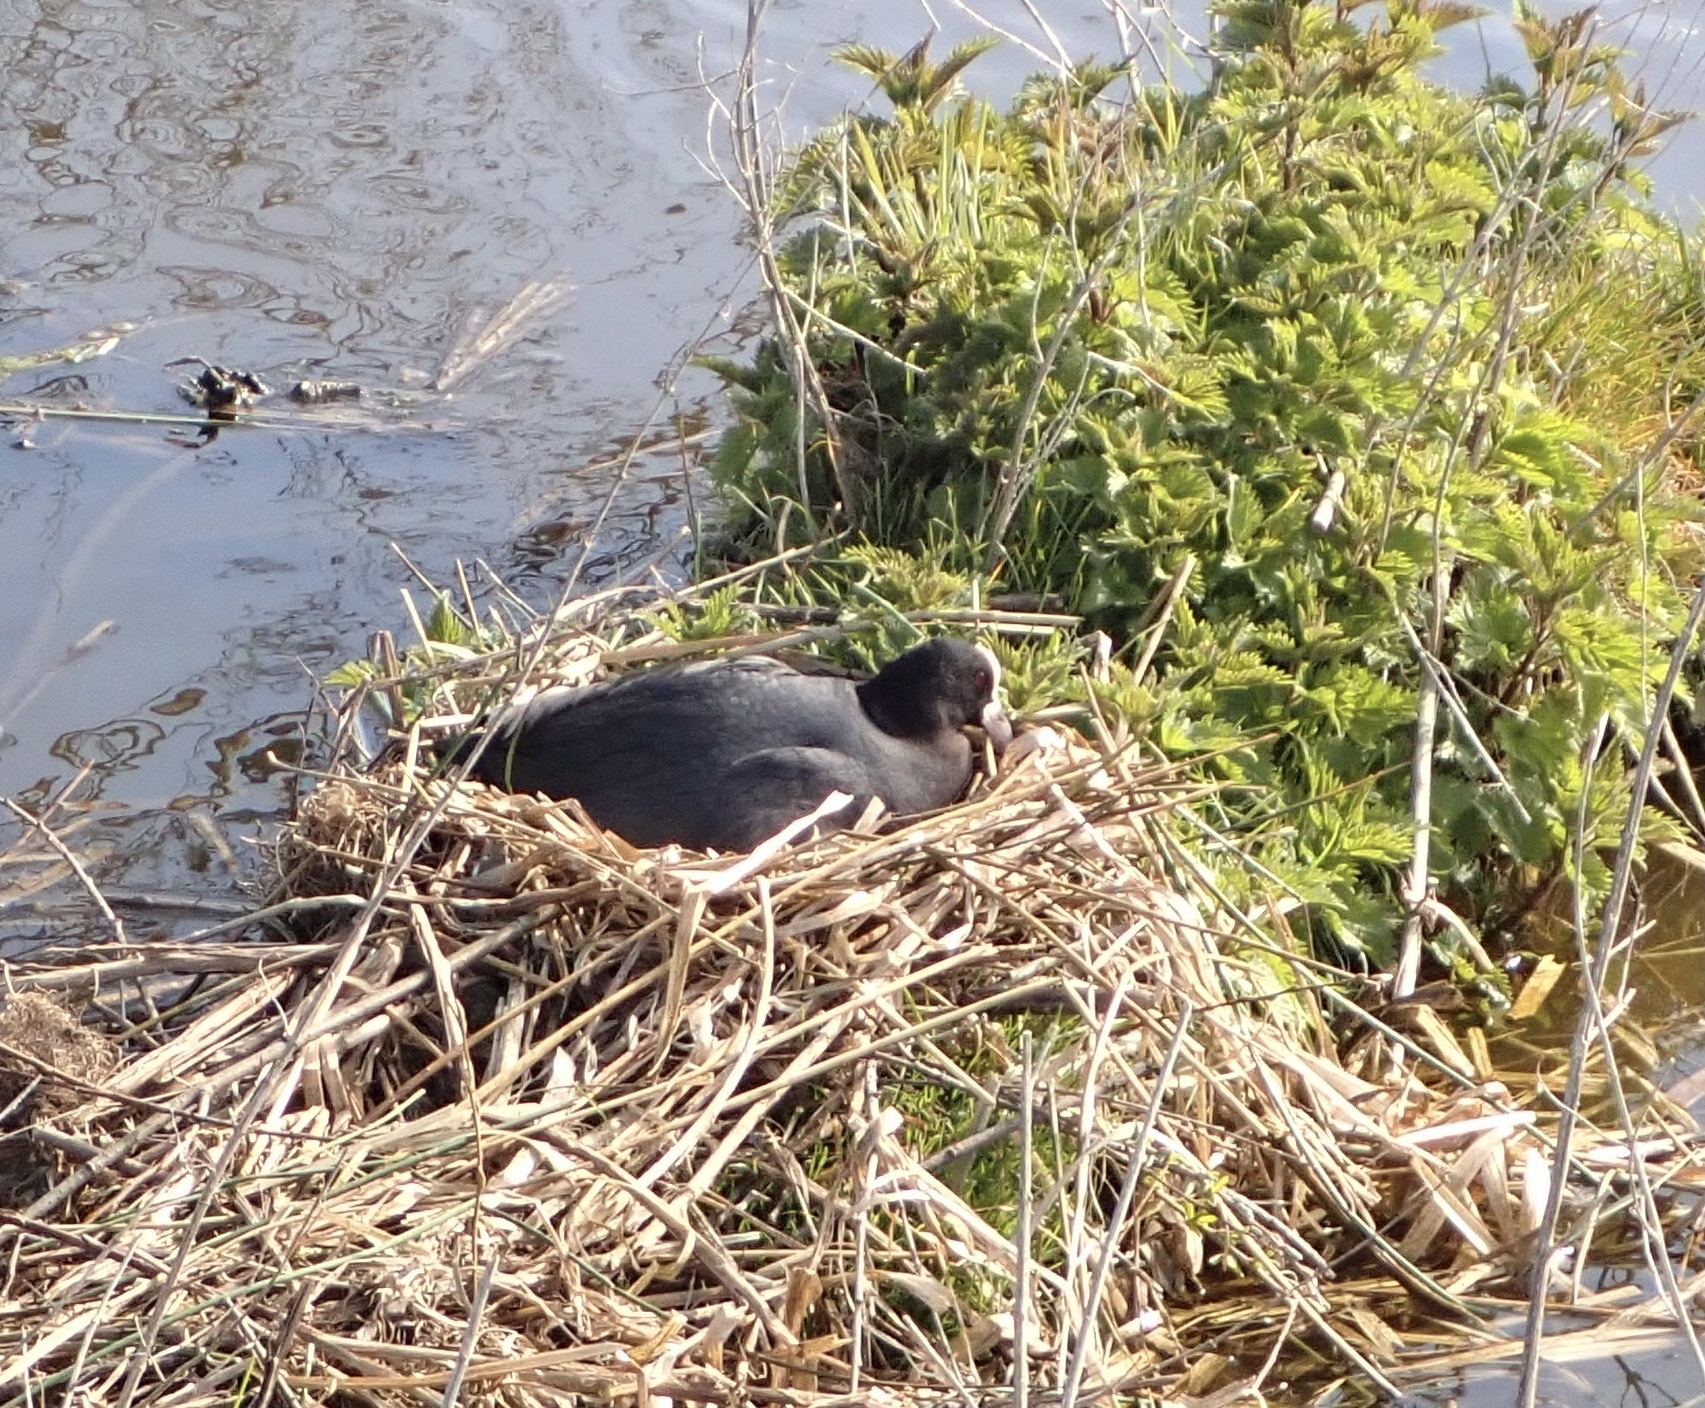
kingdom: Animalia
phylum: Chordata
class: Aves
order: Gruiformes
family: Rallidae
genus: Fulica
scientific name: Fulica atra
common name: Eurasian coot
